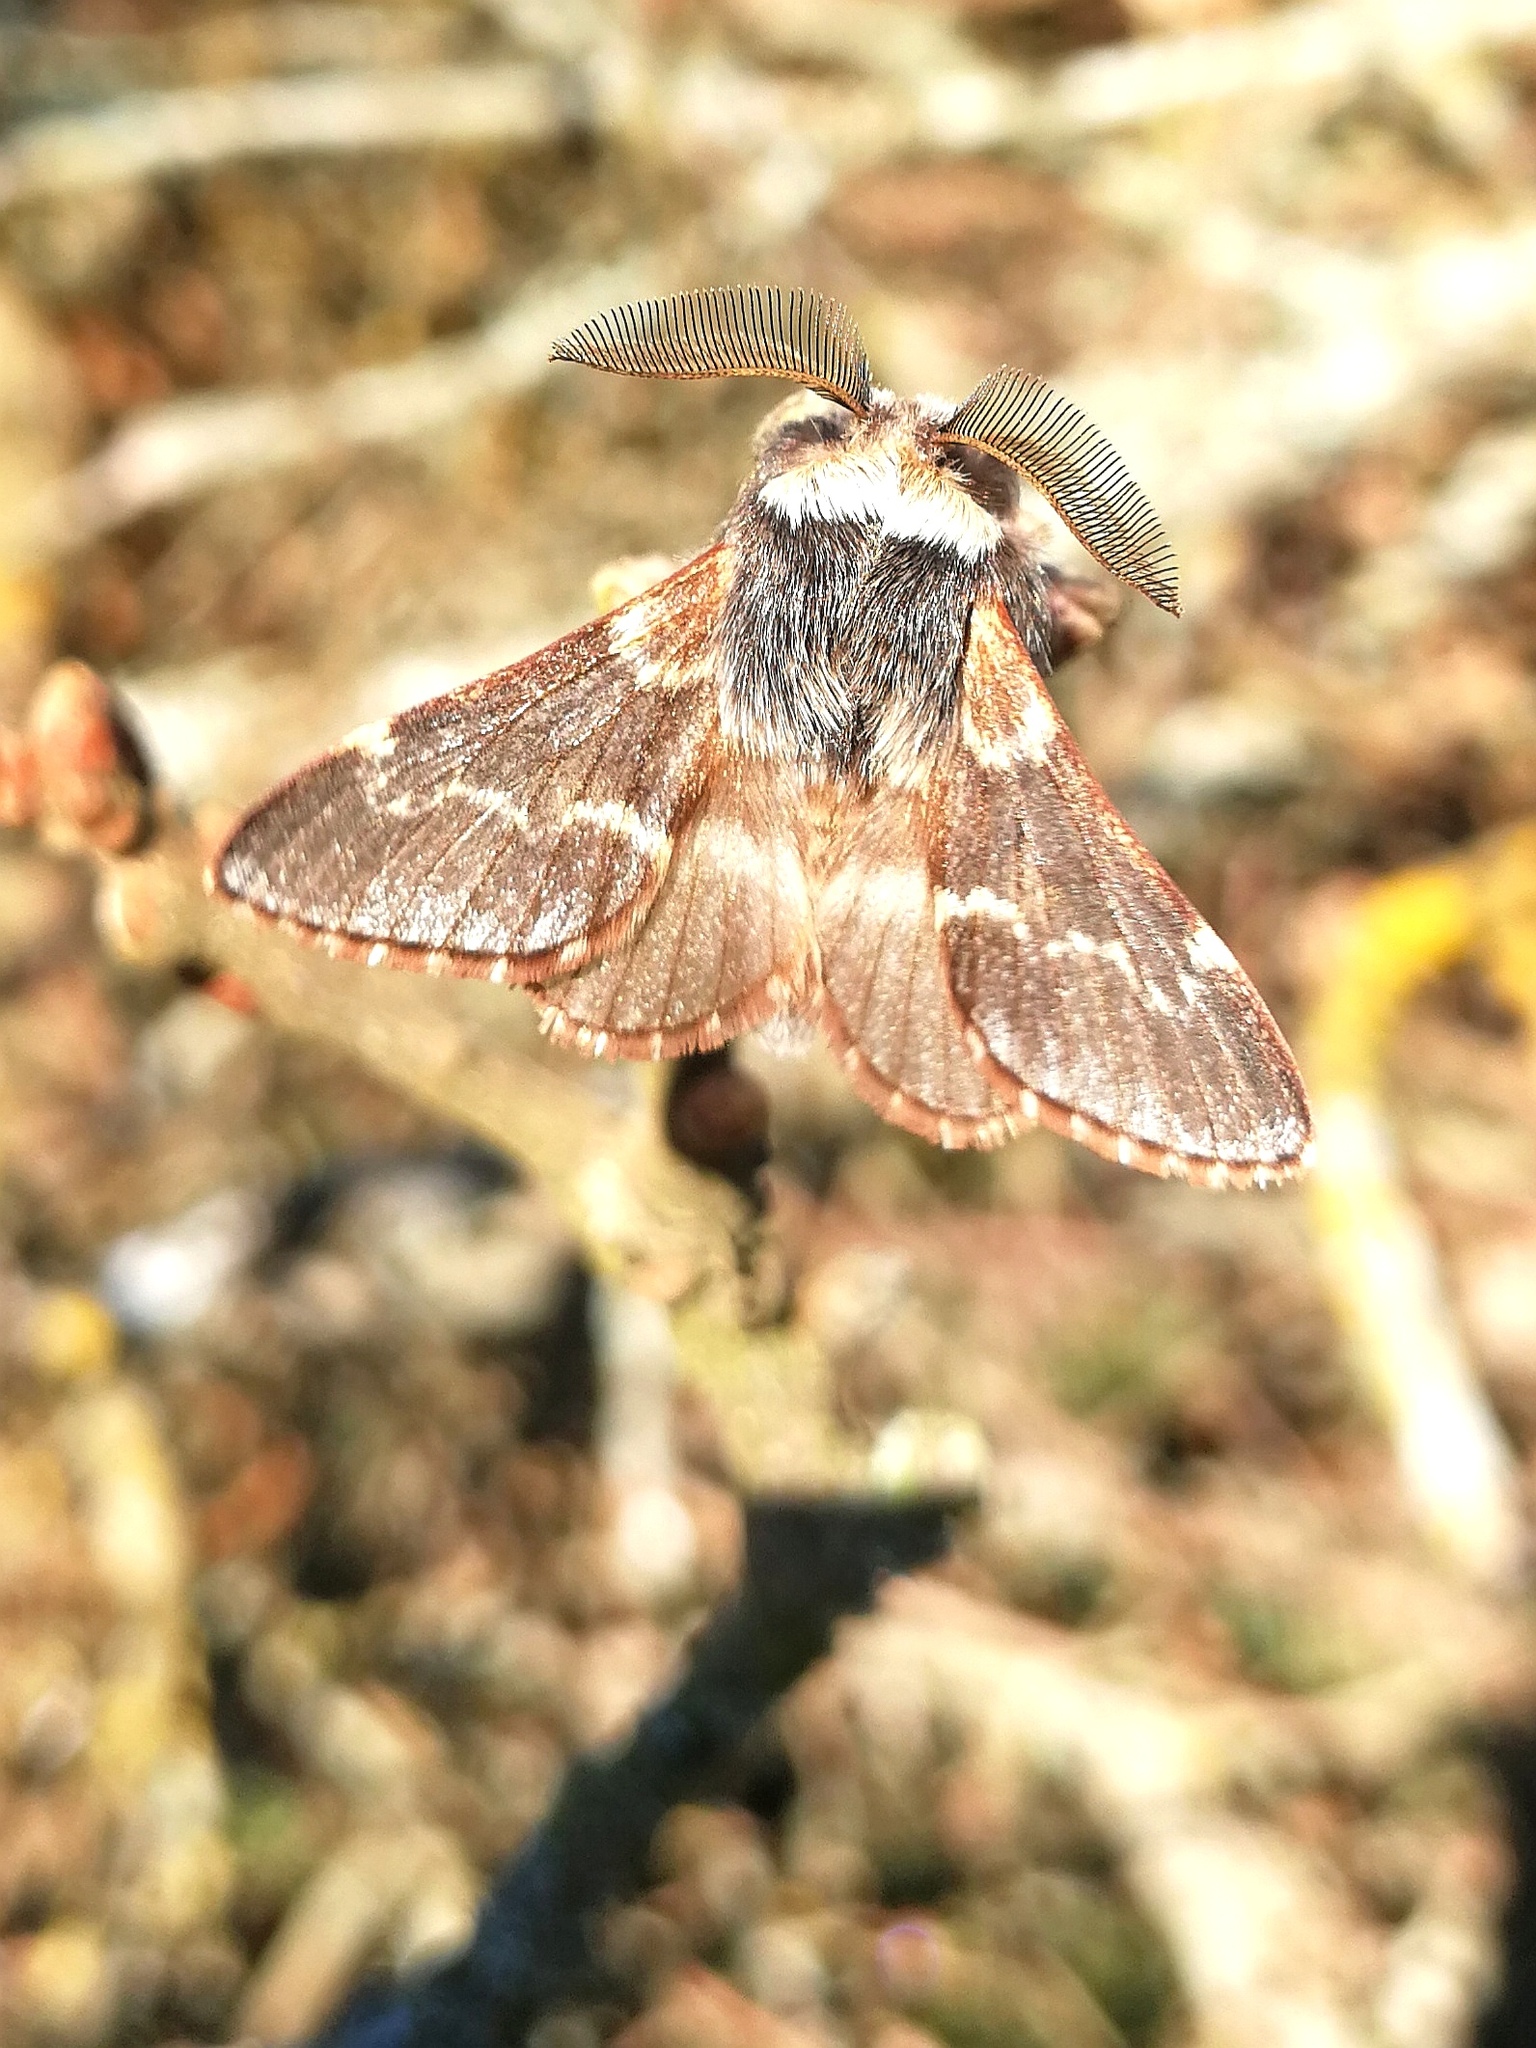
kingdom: Animalia
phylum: Arthropoda
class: Insecta
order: Lepidoptera
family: Lasiocampidae
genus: Poecilocampa
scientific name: Poecilocampa populi
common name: December moth
